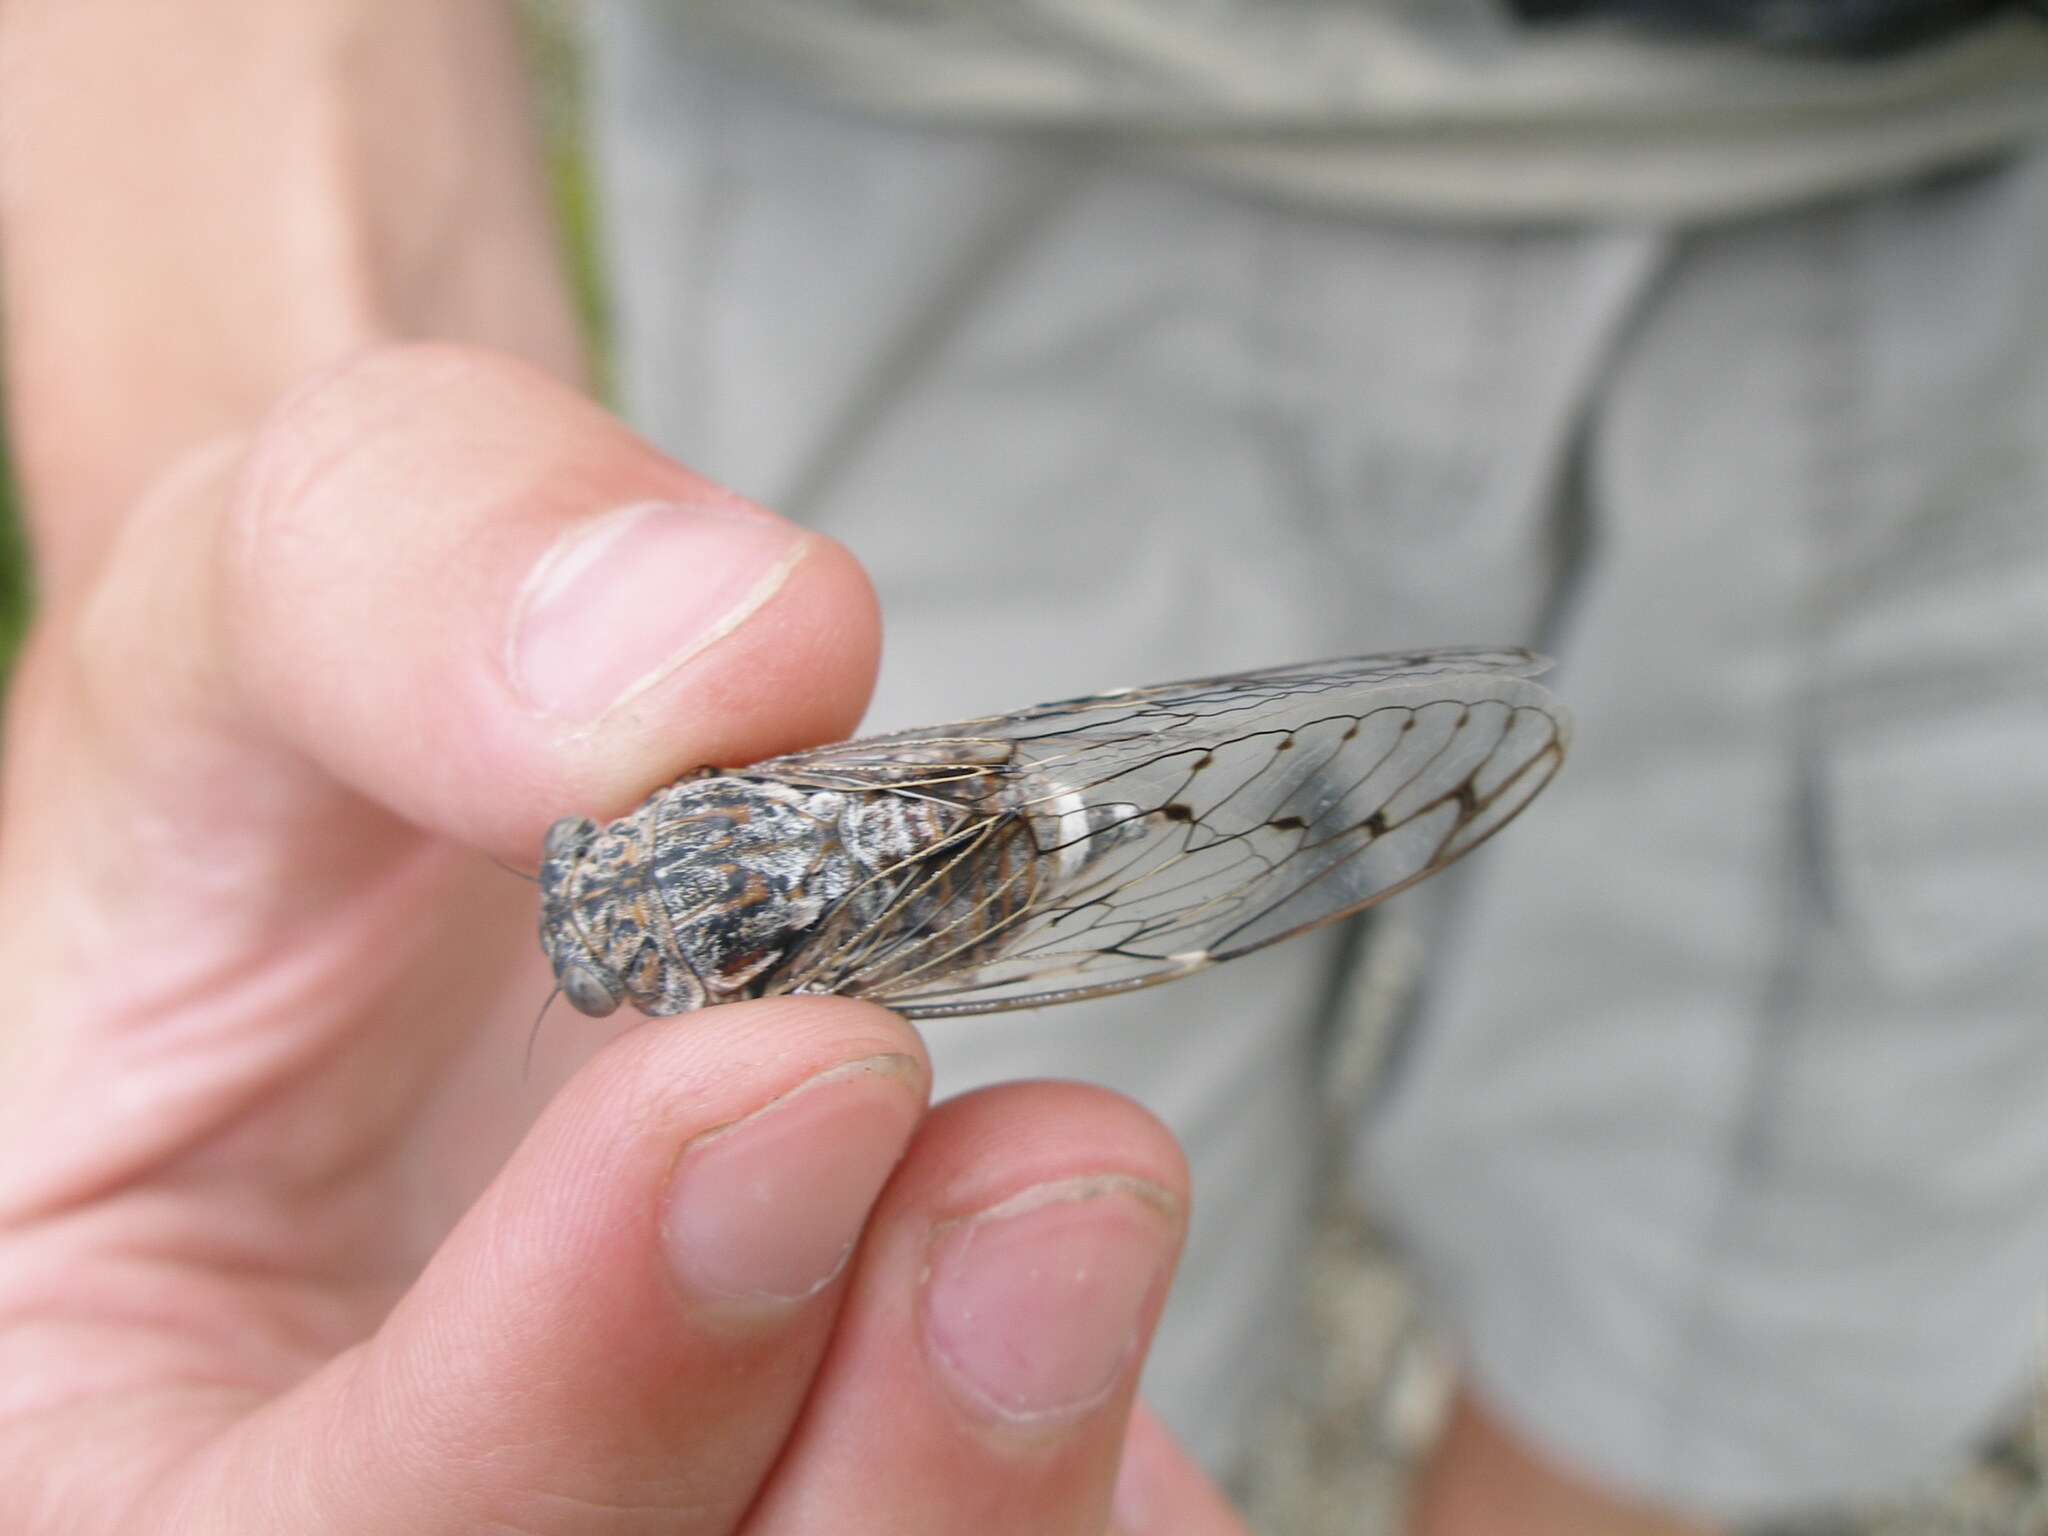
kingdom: Animalia
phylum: Arthropoda
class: Insecta
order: Hemiptera
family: Cicadidae
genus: Cicada
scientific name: Cicada orni
